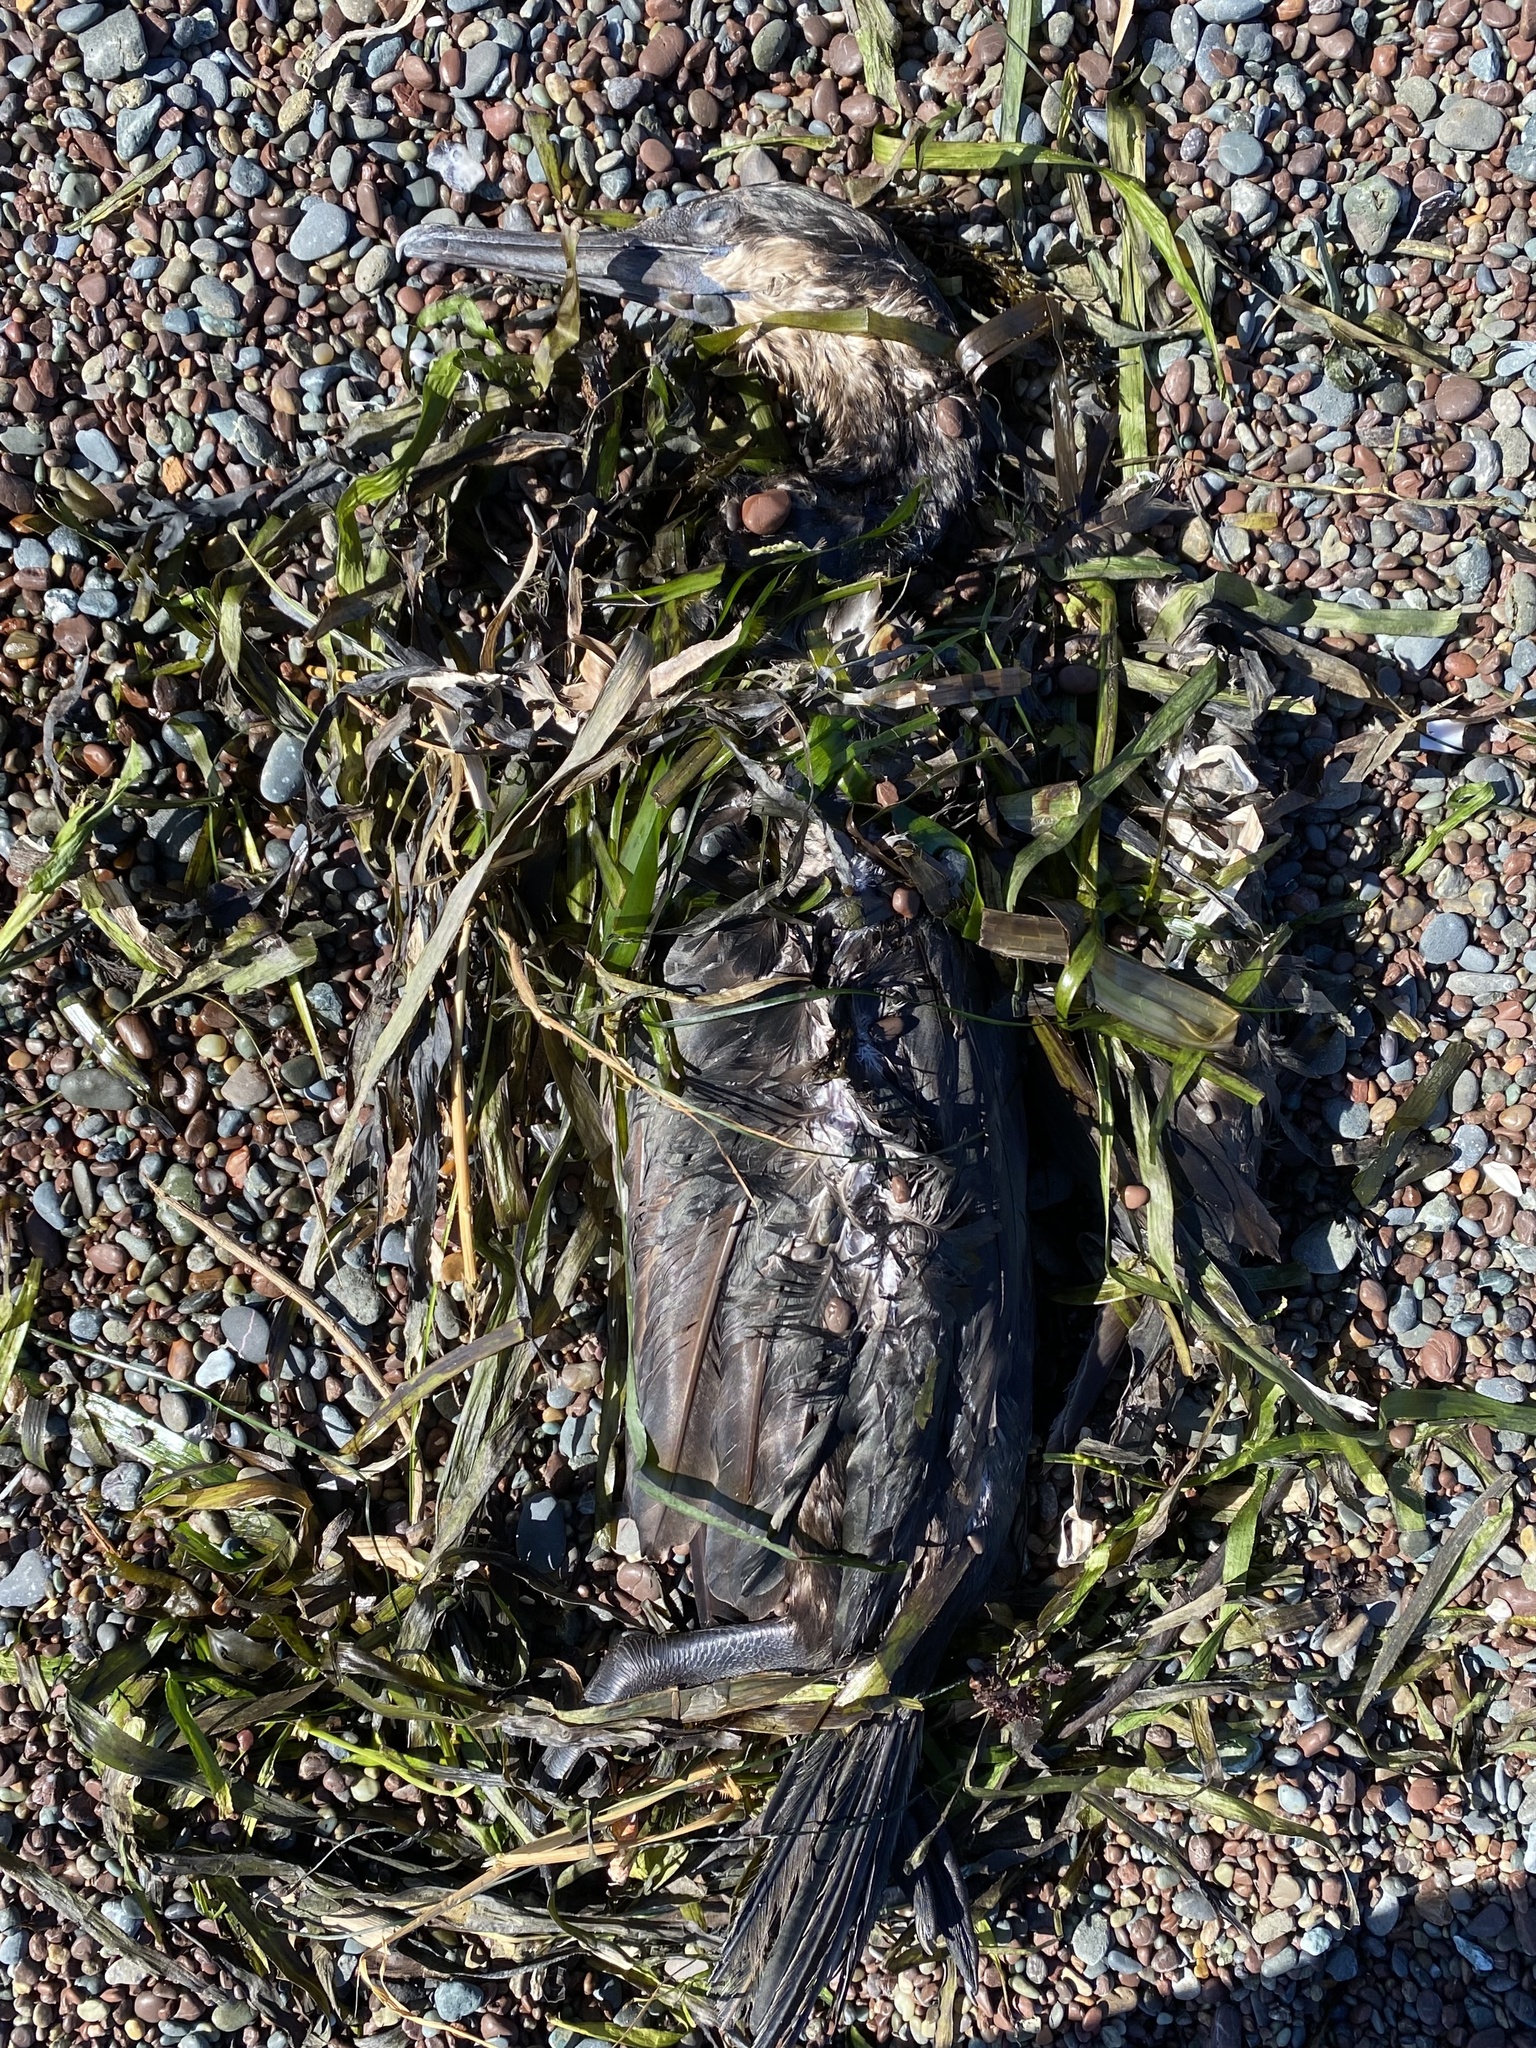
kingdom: Animalia
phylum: Chordata
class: Aves
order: Suliformes
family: Phalacrocoracidae
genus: Urile
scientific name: Urile penicillatus
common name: Brandt's cormorant
